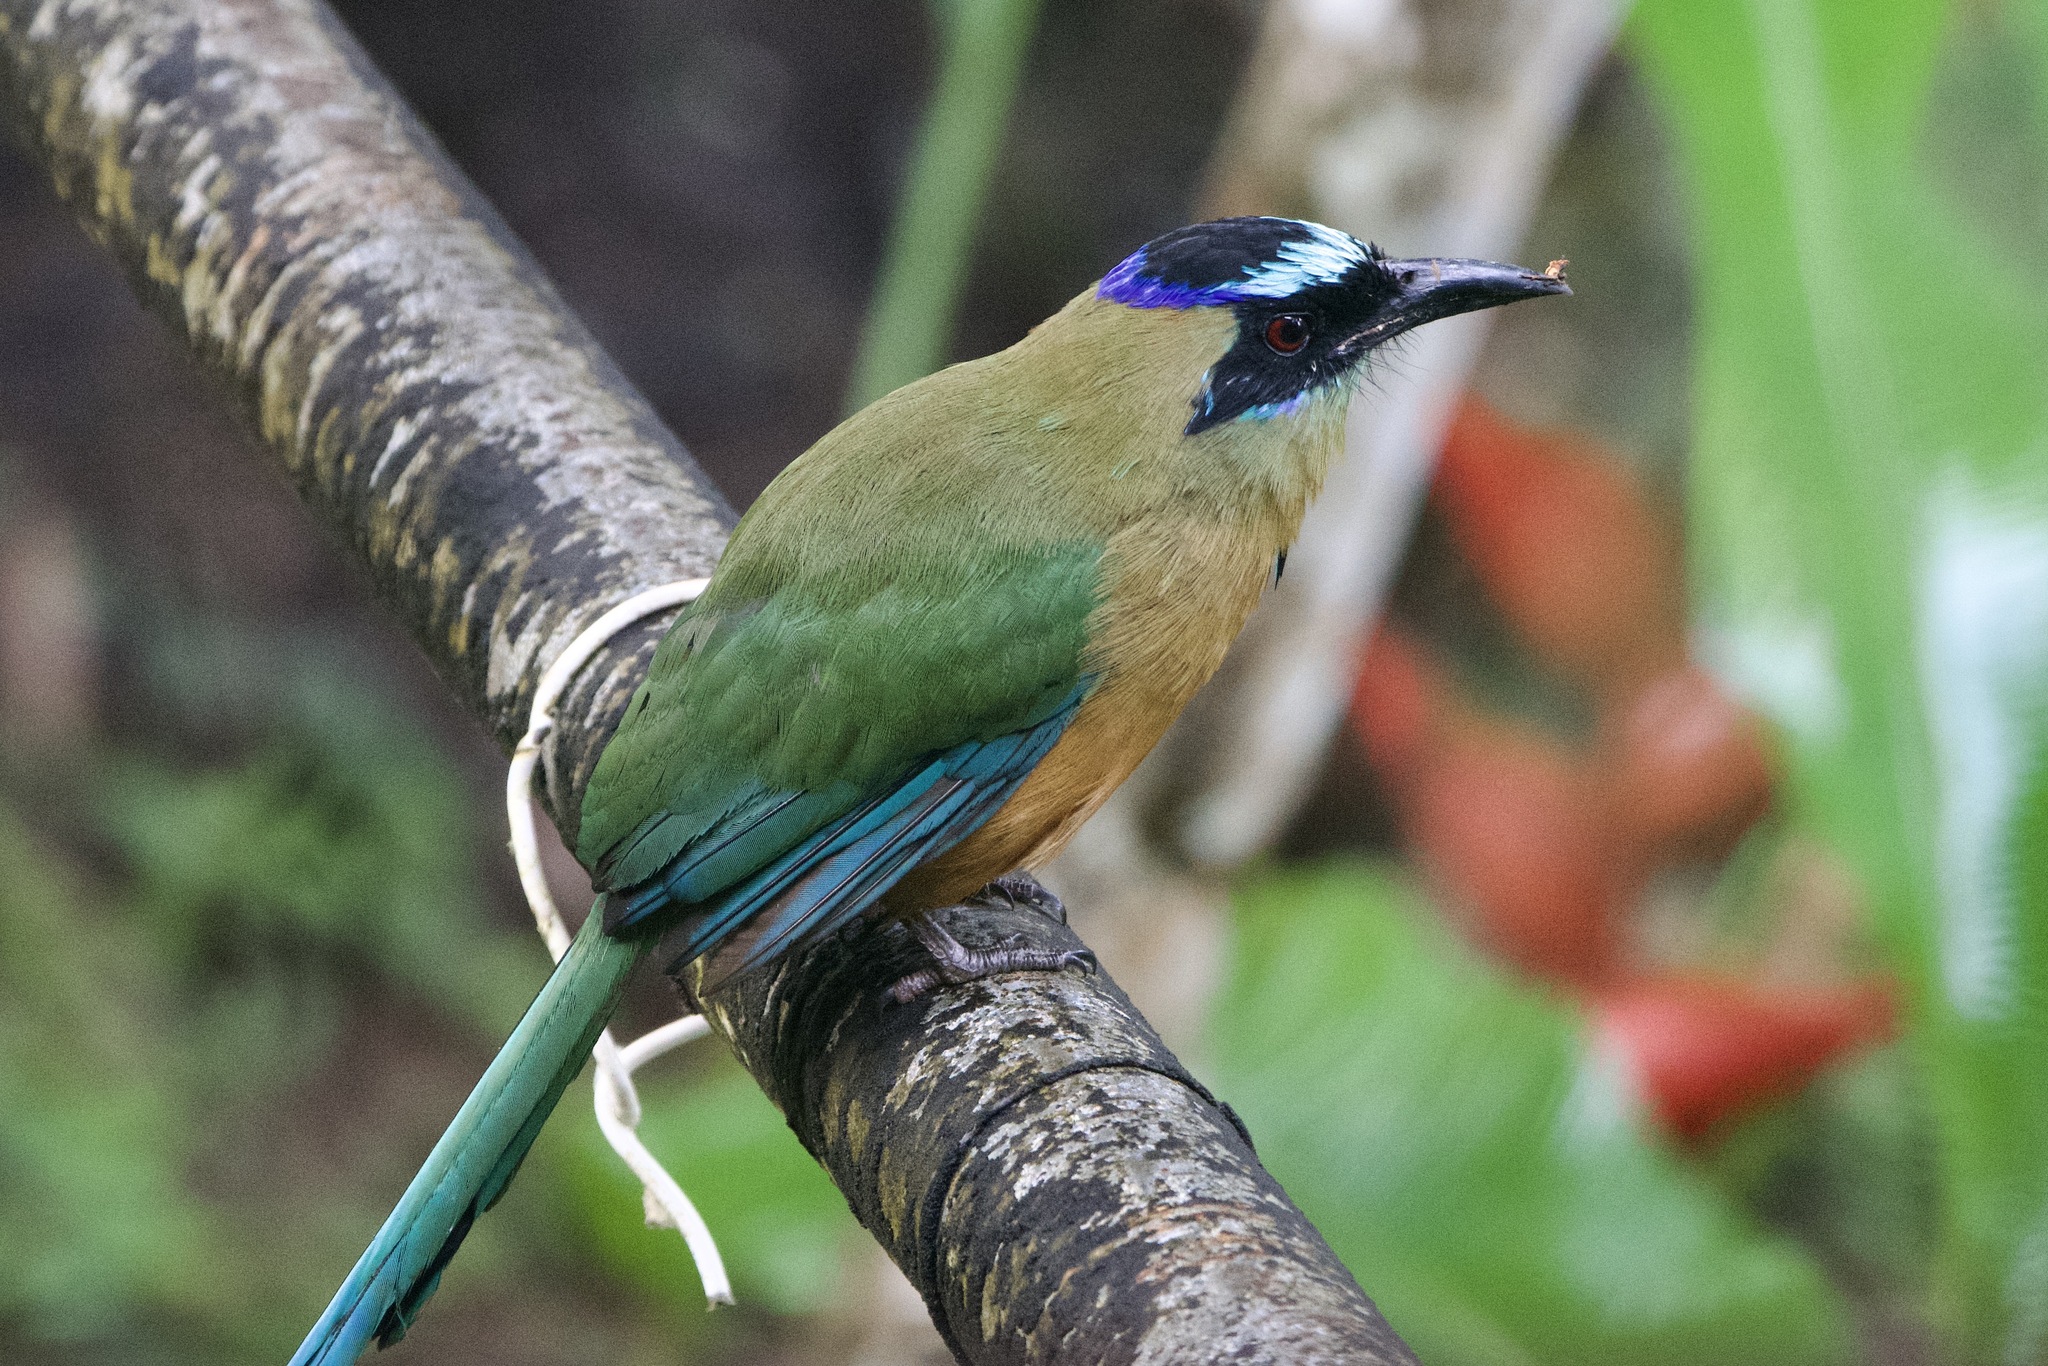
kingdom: Animalia
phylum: Chordata
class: Aves
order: Coraciiformes
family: Momotidae
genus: Momotus
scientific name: Momotus subrufescens
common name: Whooping motmot
